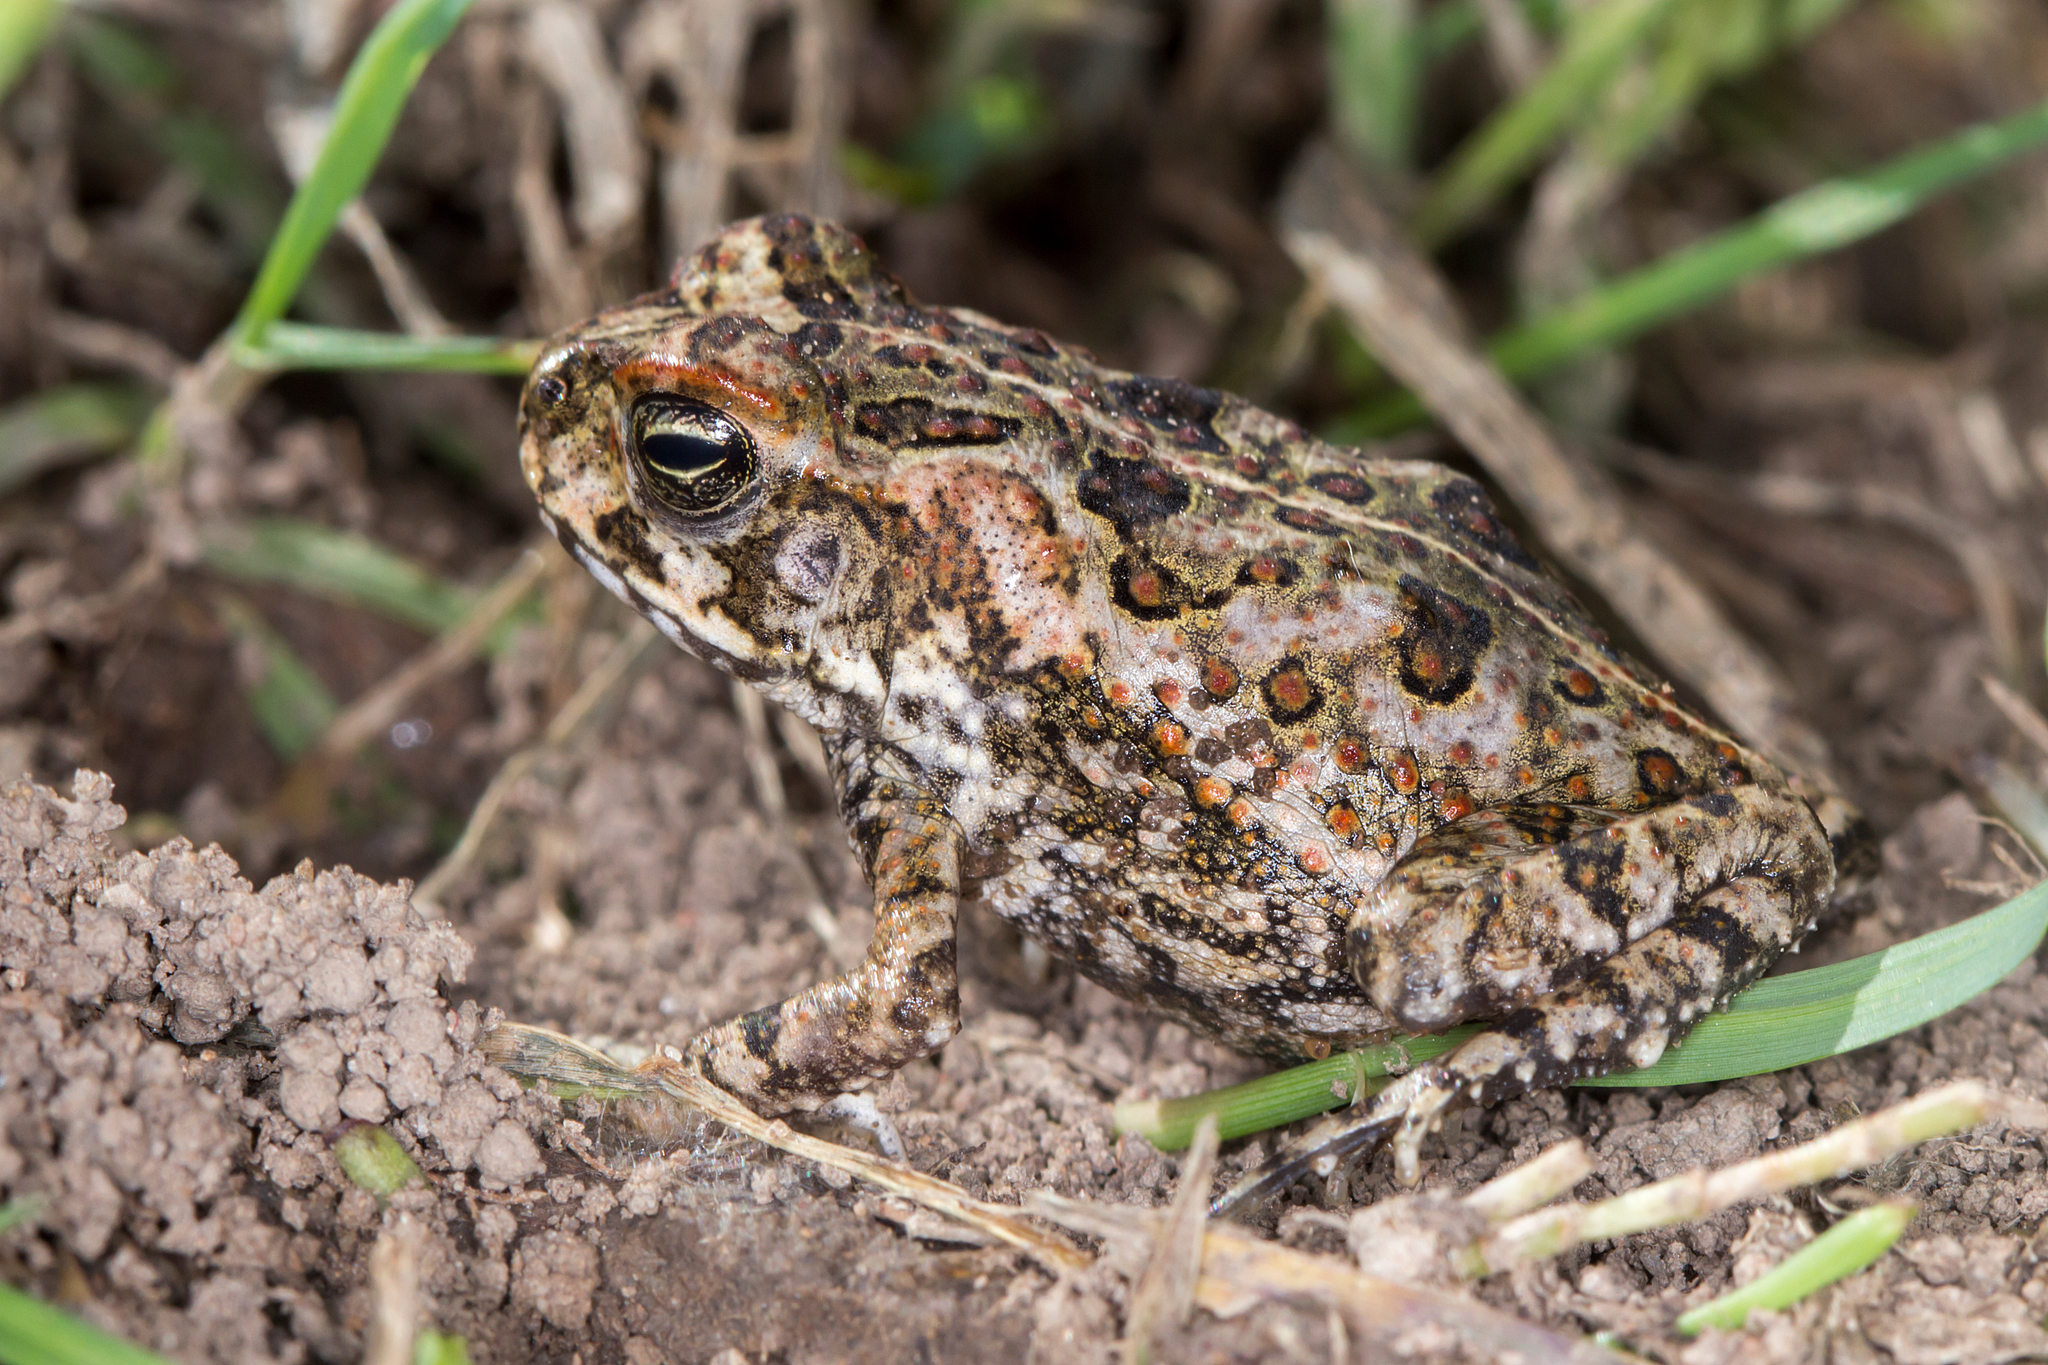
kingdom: Animalia
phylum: Chordata
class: Amphibia
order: Anura
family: Bufonidae
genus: Rhinella
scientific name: Rhinella marina
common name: Cane toad
